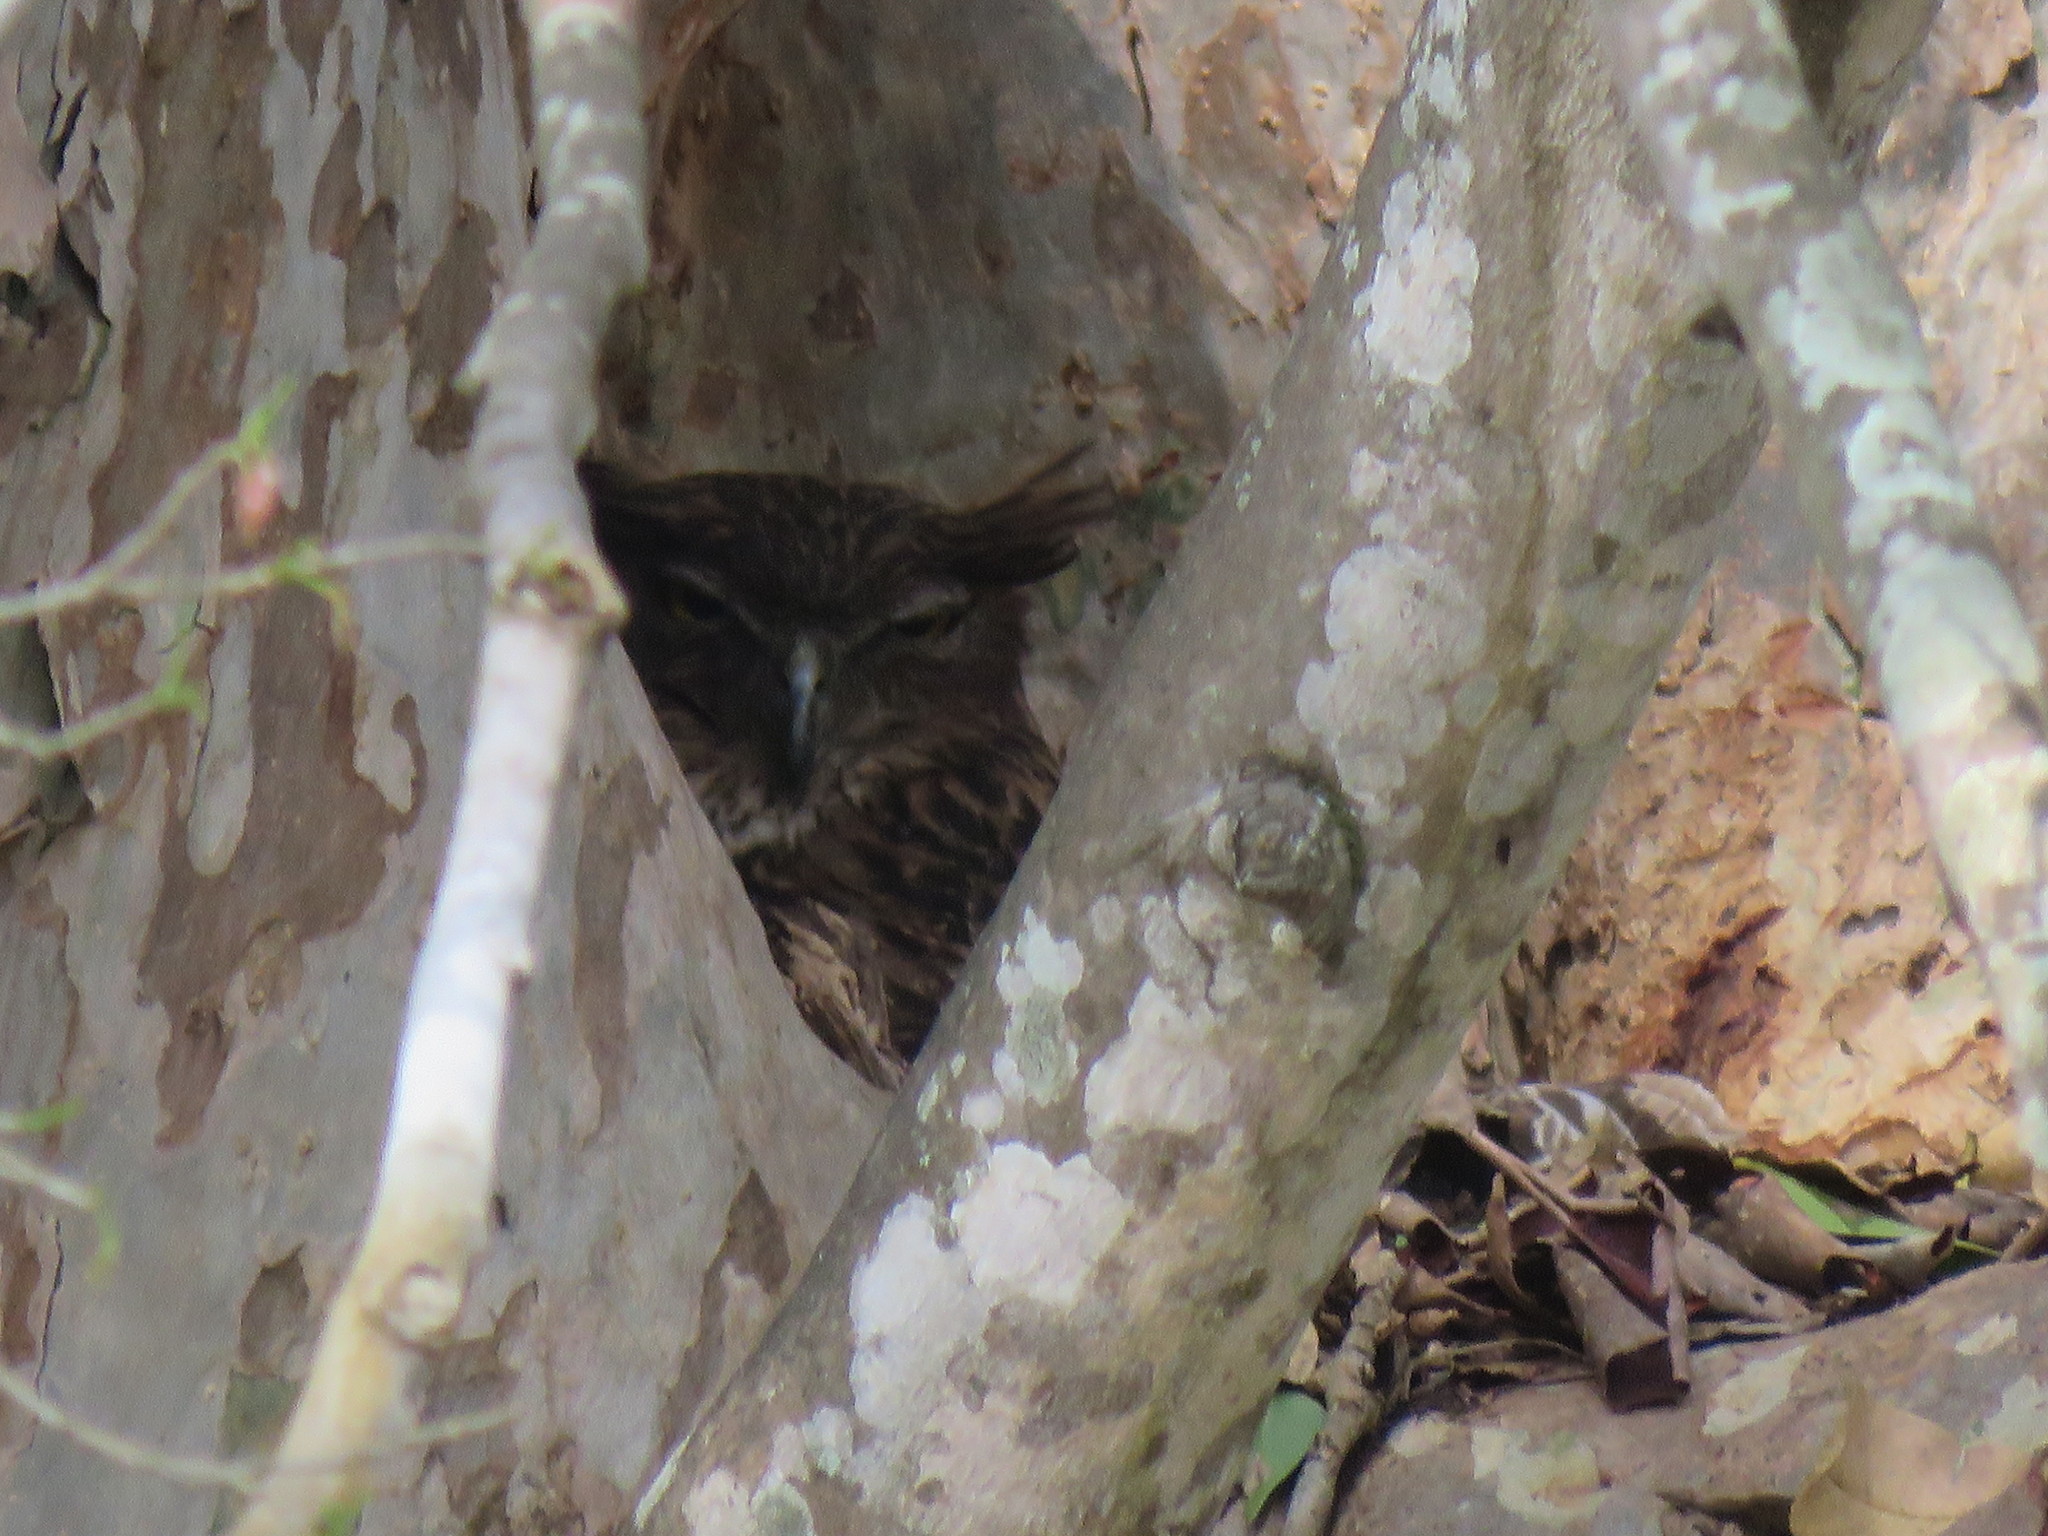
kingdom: Animalia
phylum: Chordata
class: Aves
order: Strigiformes
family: Strigidae
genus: Ketupa
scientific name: Ketupa zeylonensis
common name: Brown fish owl
